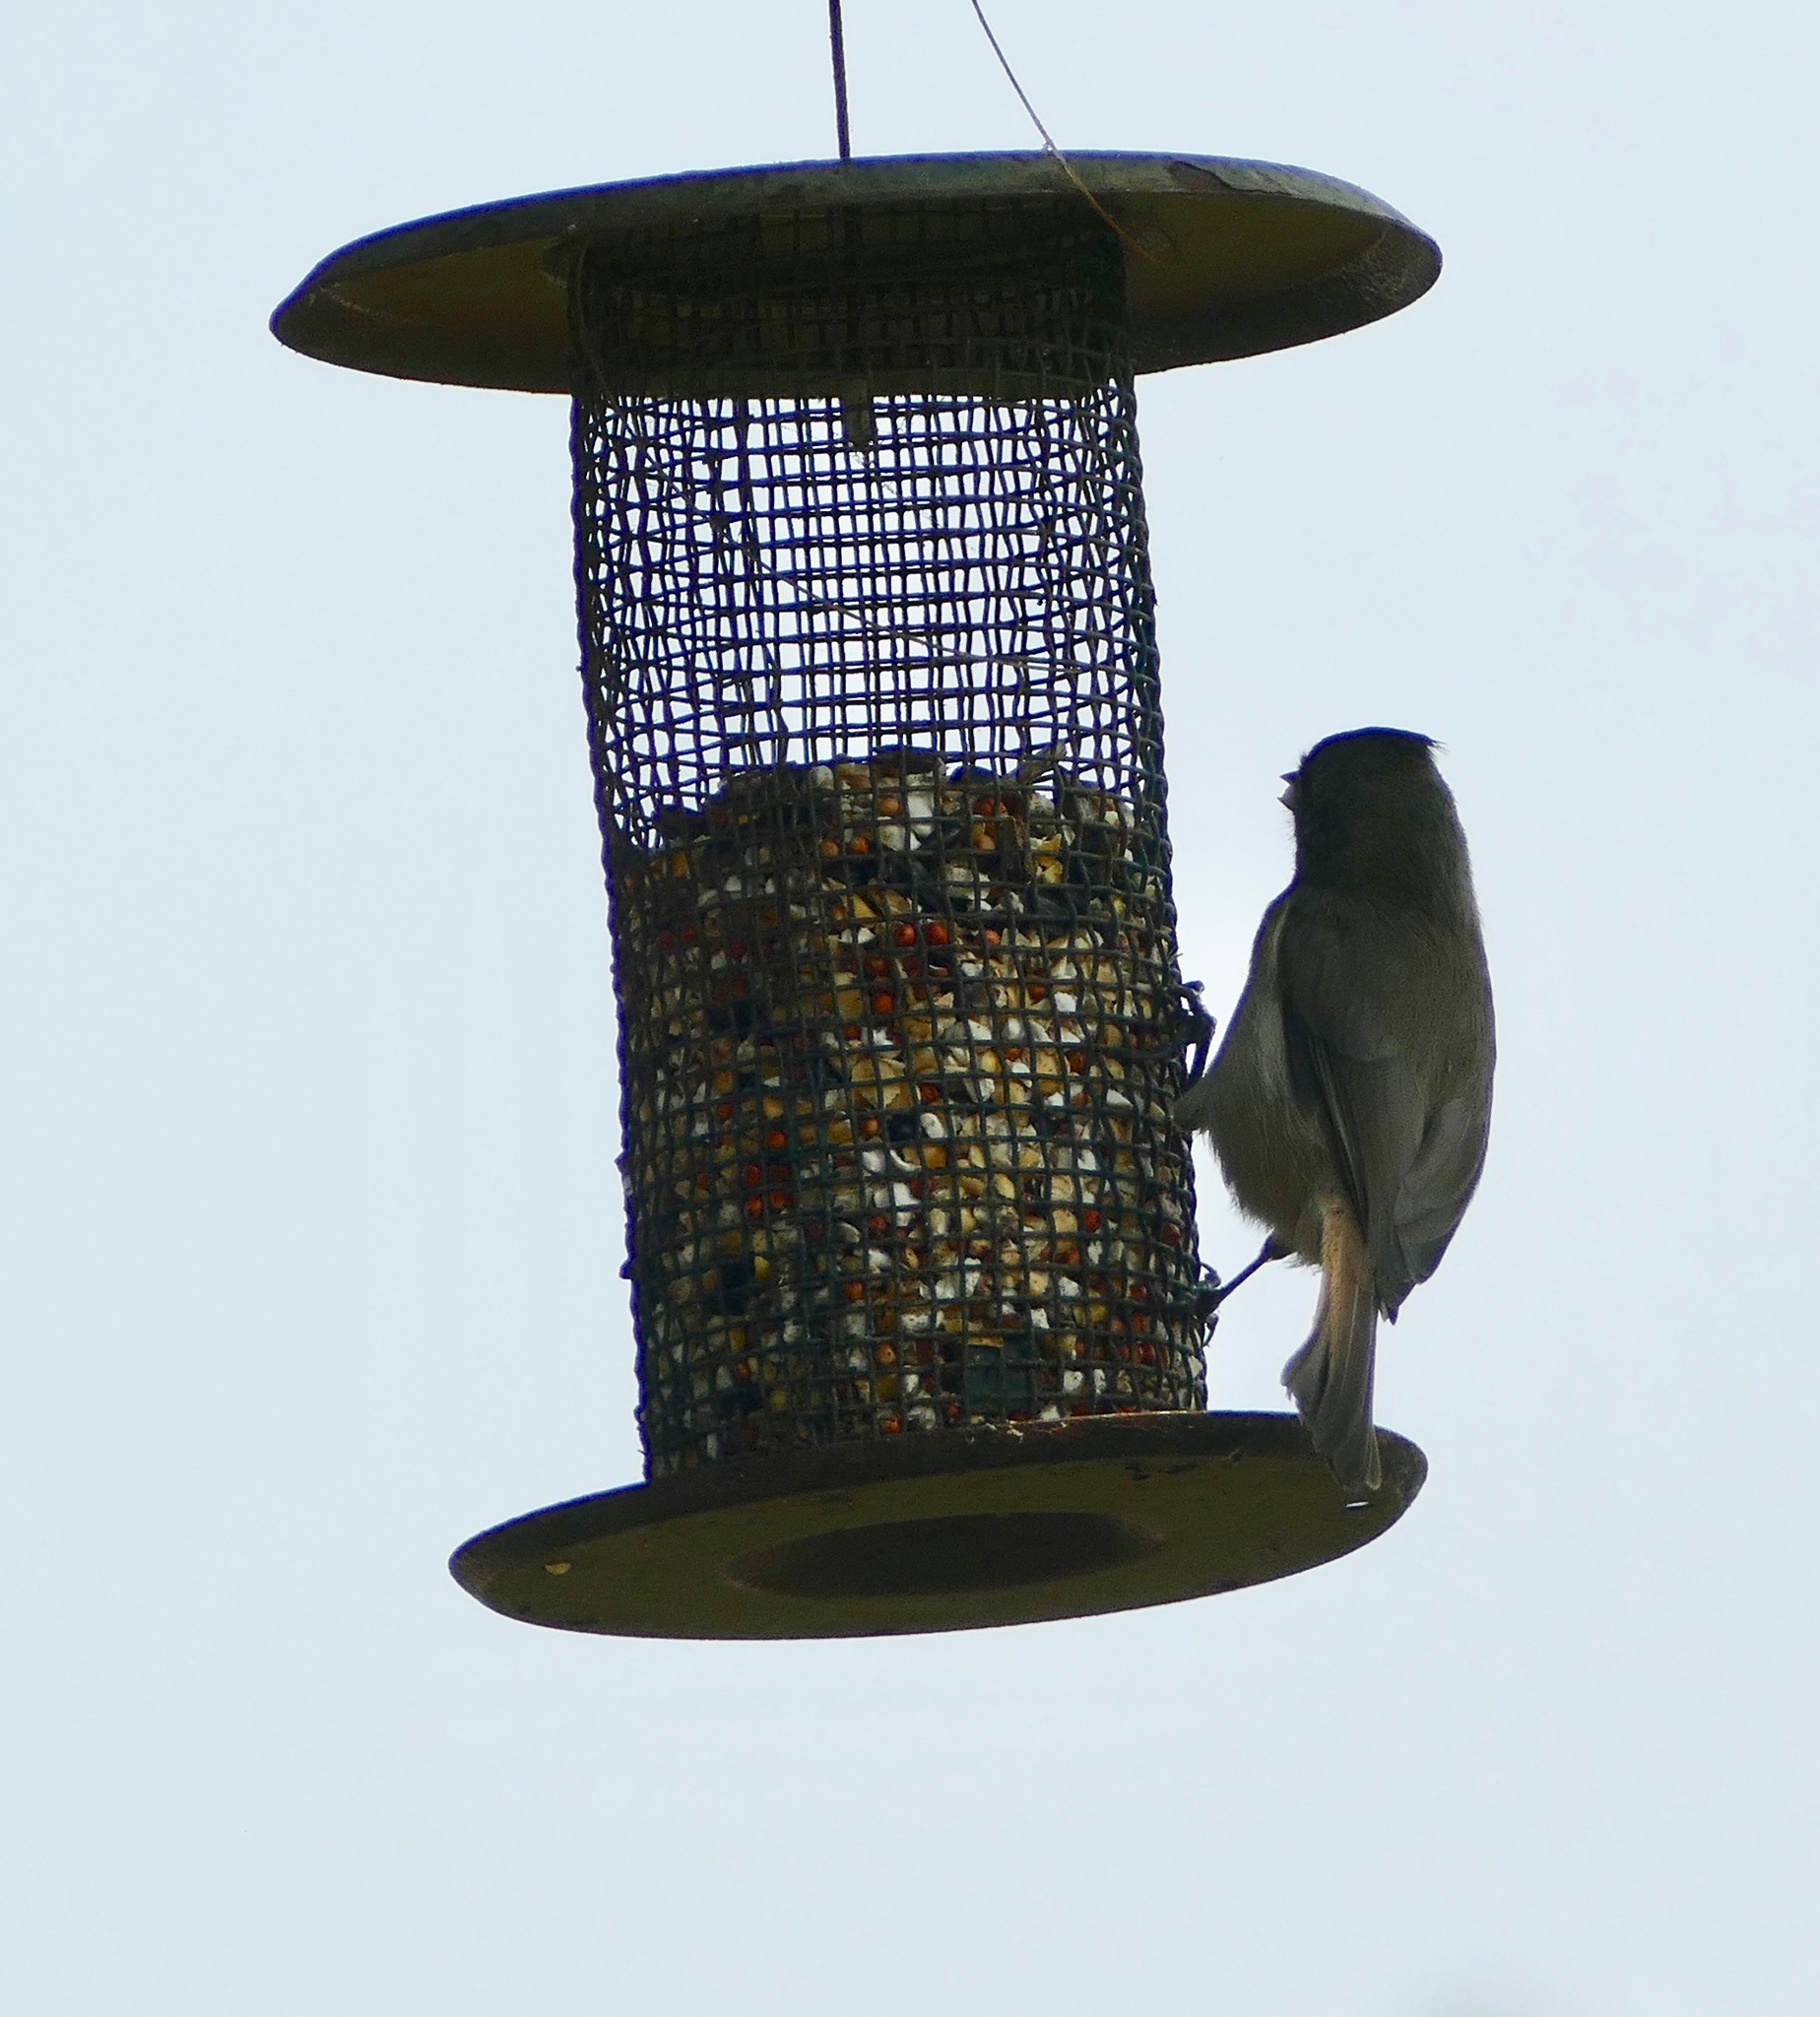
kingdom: Animalia
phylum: Chordata
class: Aves
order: Passeriformes
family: Paridae
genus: Baeolophus
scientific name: Baeolophus inornatus
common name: Oak titmouse
